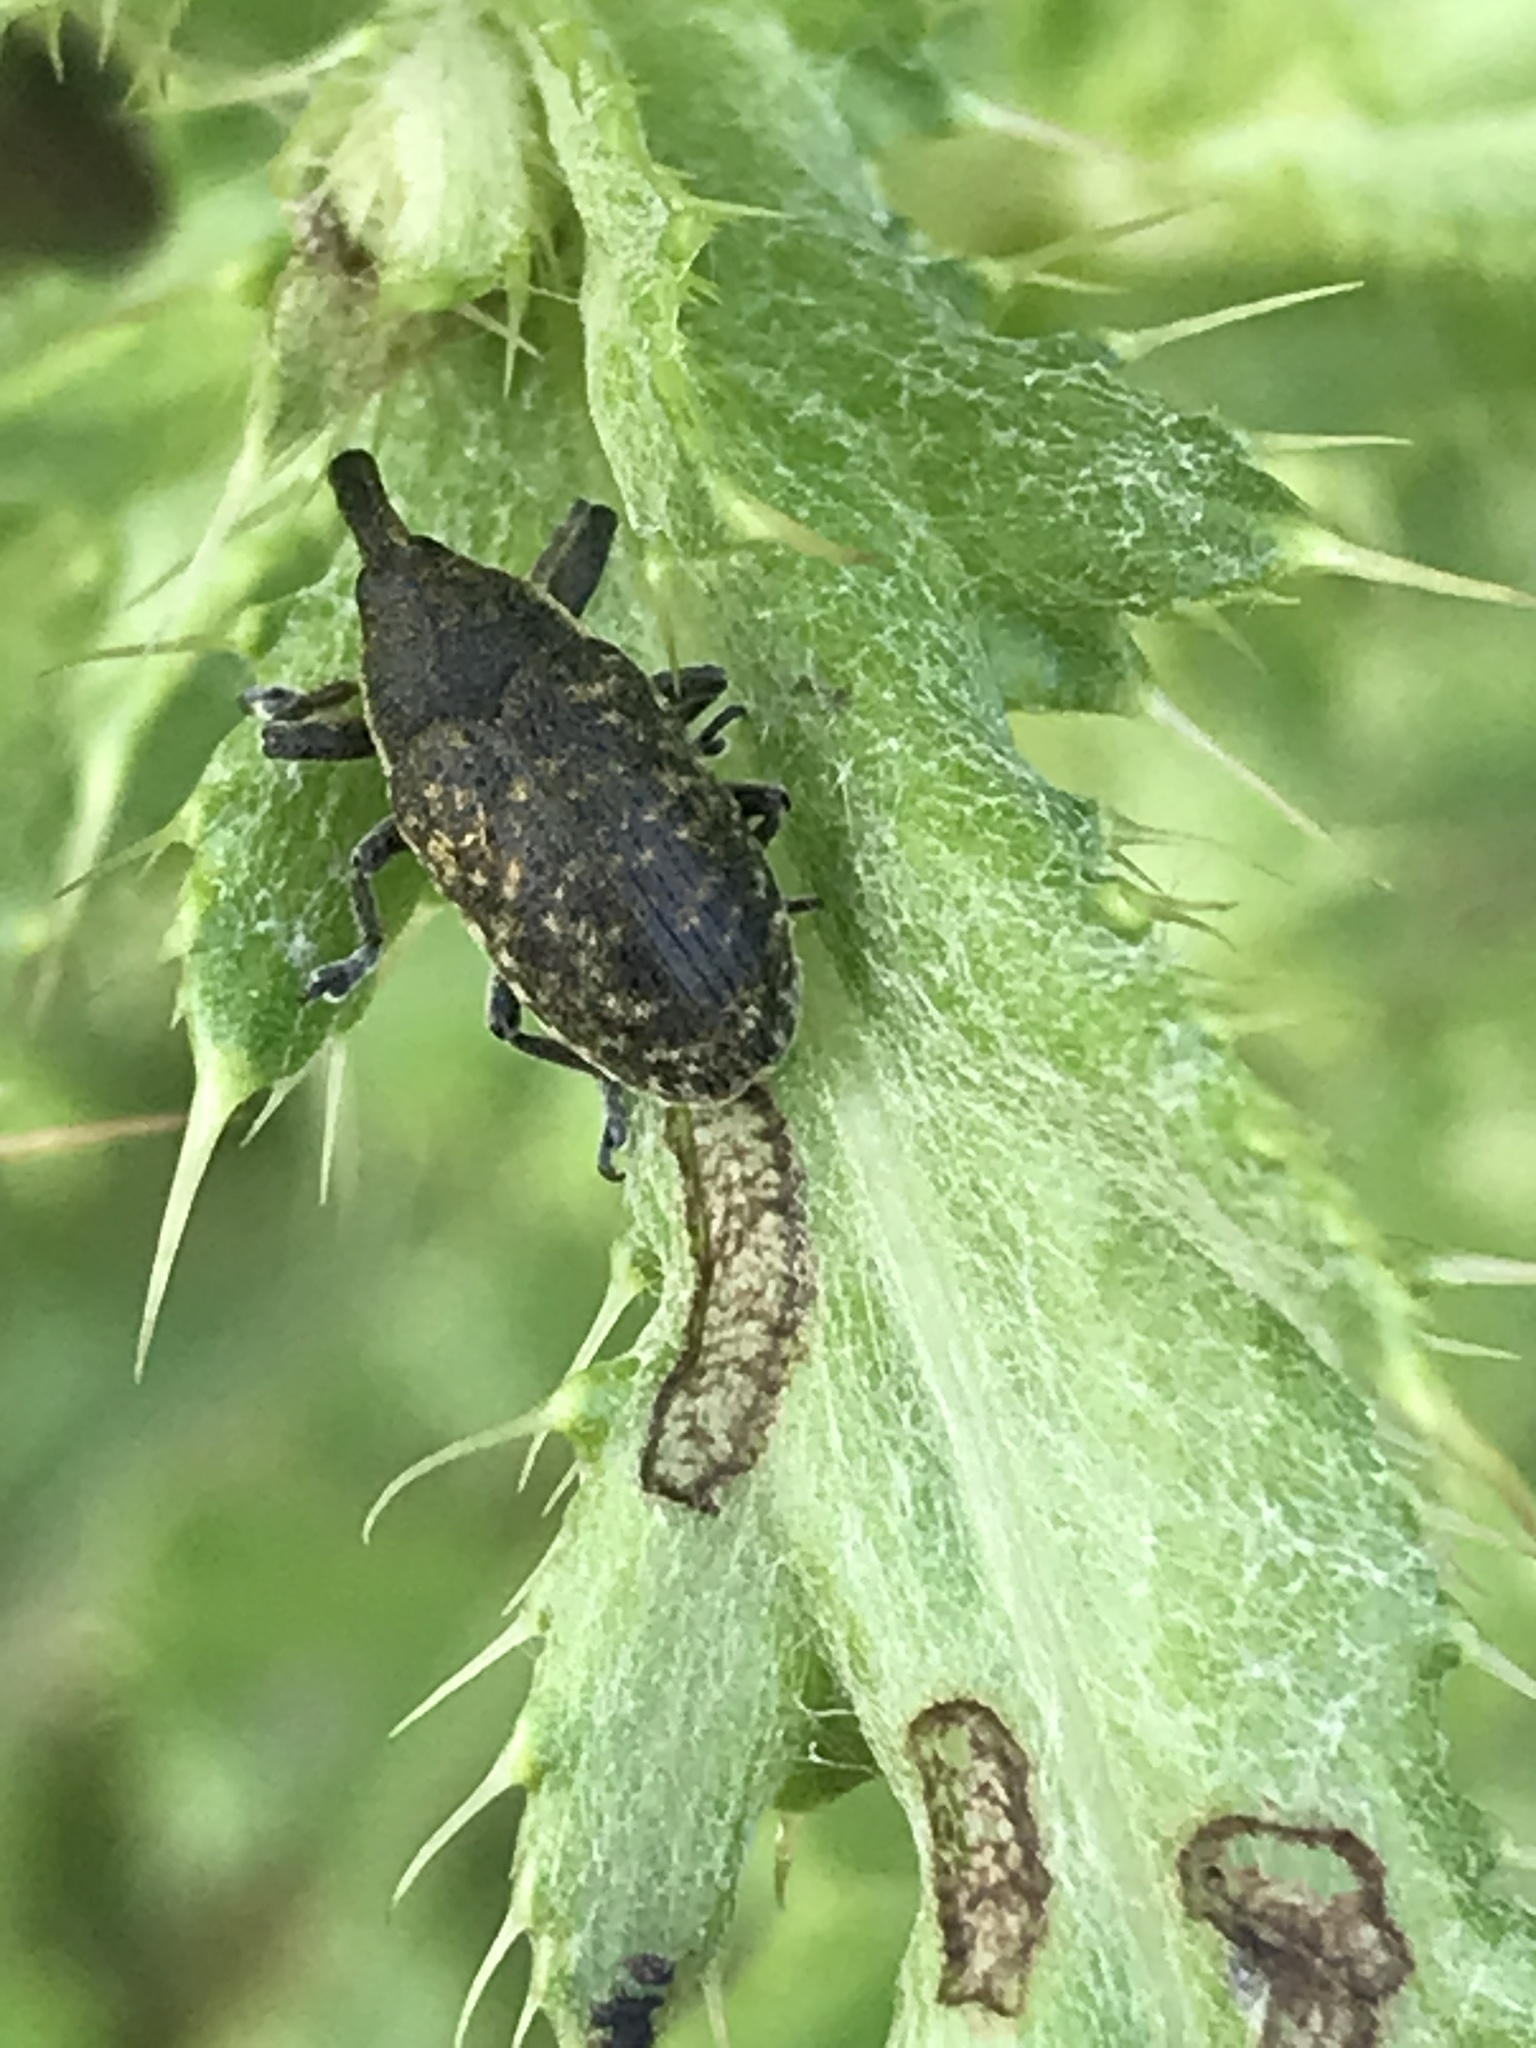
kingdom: Animalia
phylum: Arthropoda
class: Insecta
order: Coleoptera
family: Curculionidae
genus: Larinus
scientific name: Larinus carlinae
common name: Weevil
